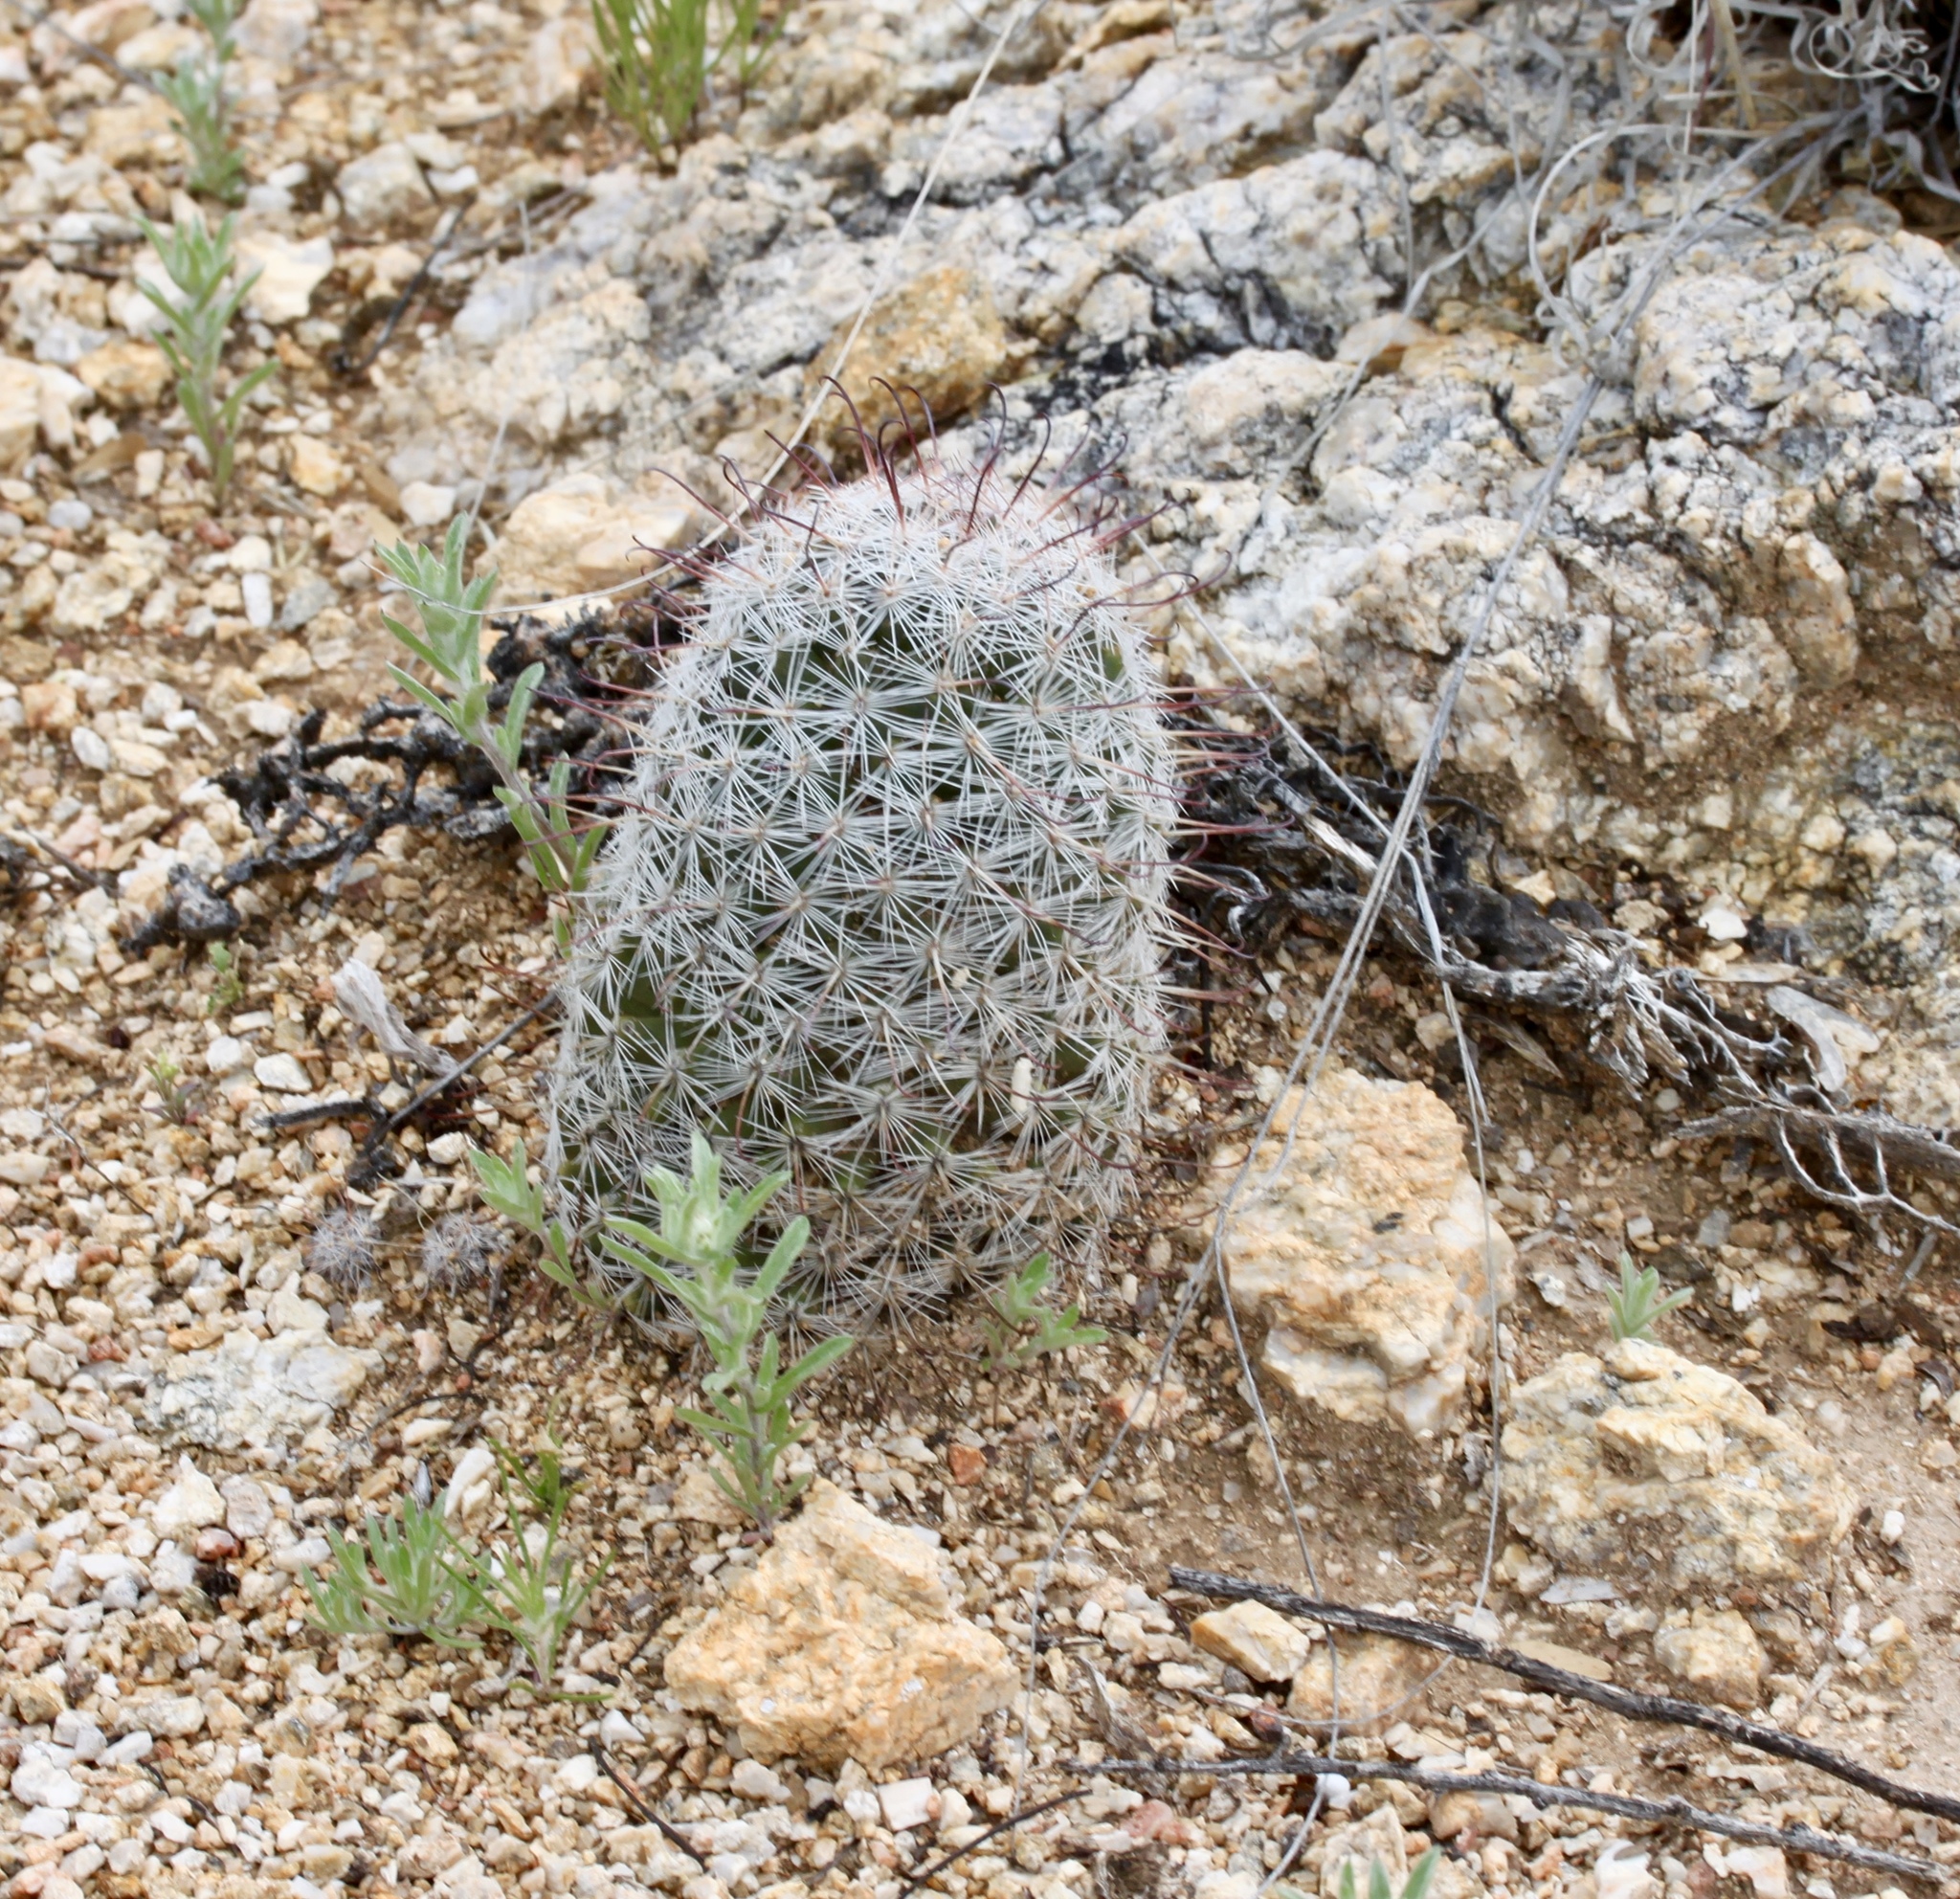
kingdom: Plantae
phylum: Tracheophyta
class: Magnoliopsida
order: Caryophyllales
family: Cactaceae
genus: Cochemiea
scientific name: Cochemiea grahamii
